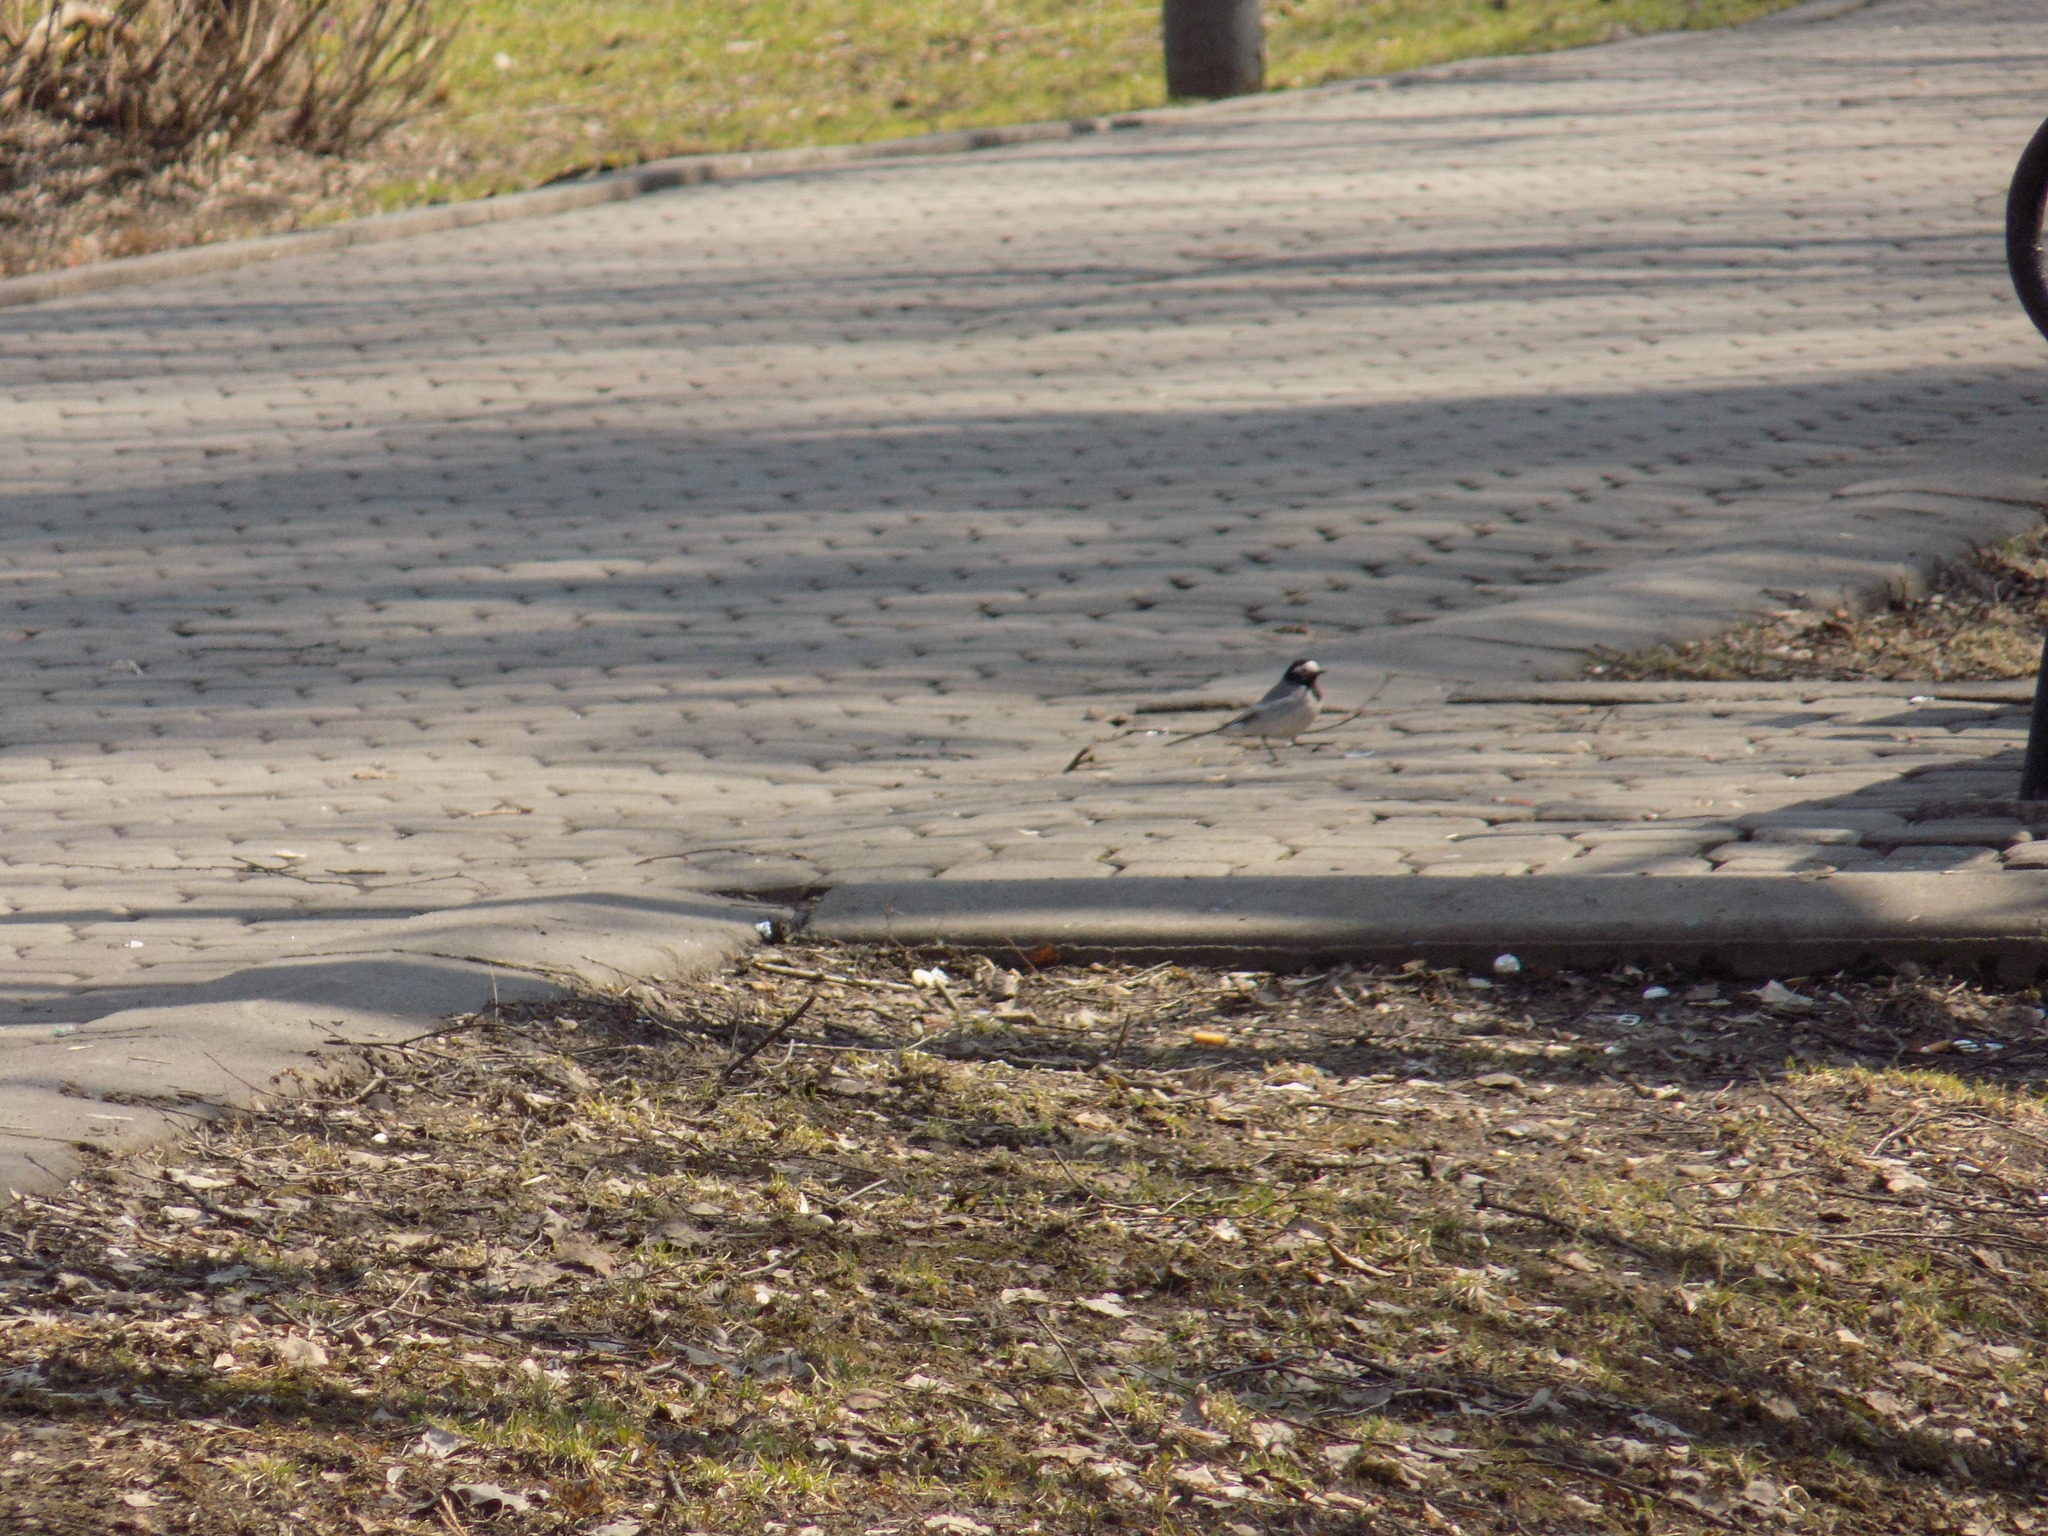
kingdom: Animalia
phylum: Chordata
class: Aves
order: Passeriformes
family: Motacillidae
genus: Motacilla
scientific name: Motacilla alba
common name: White wagtail
